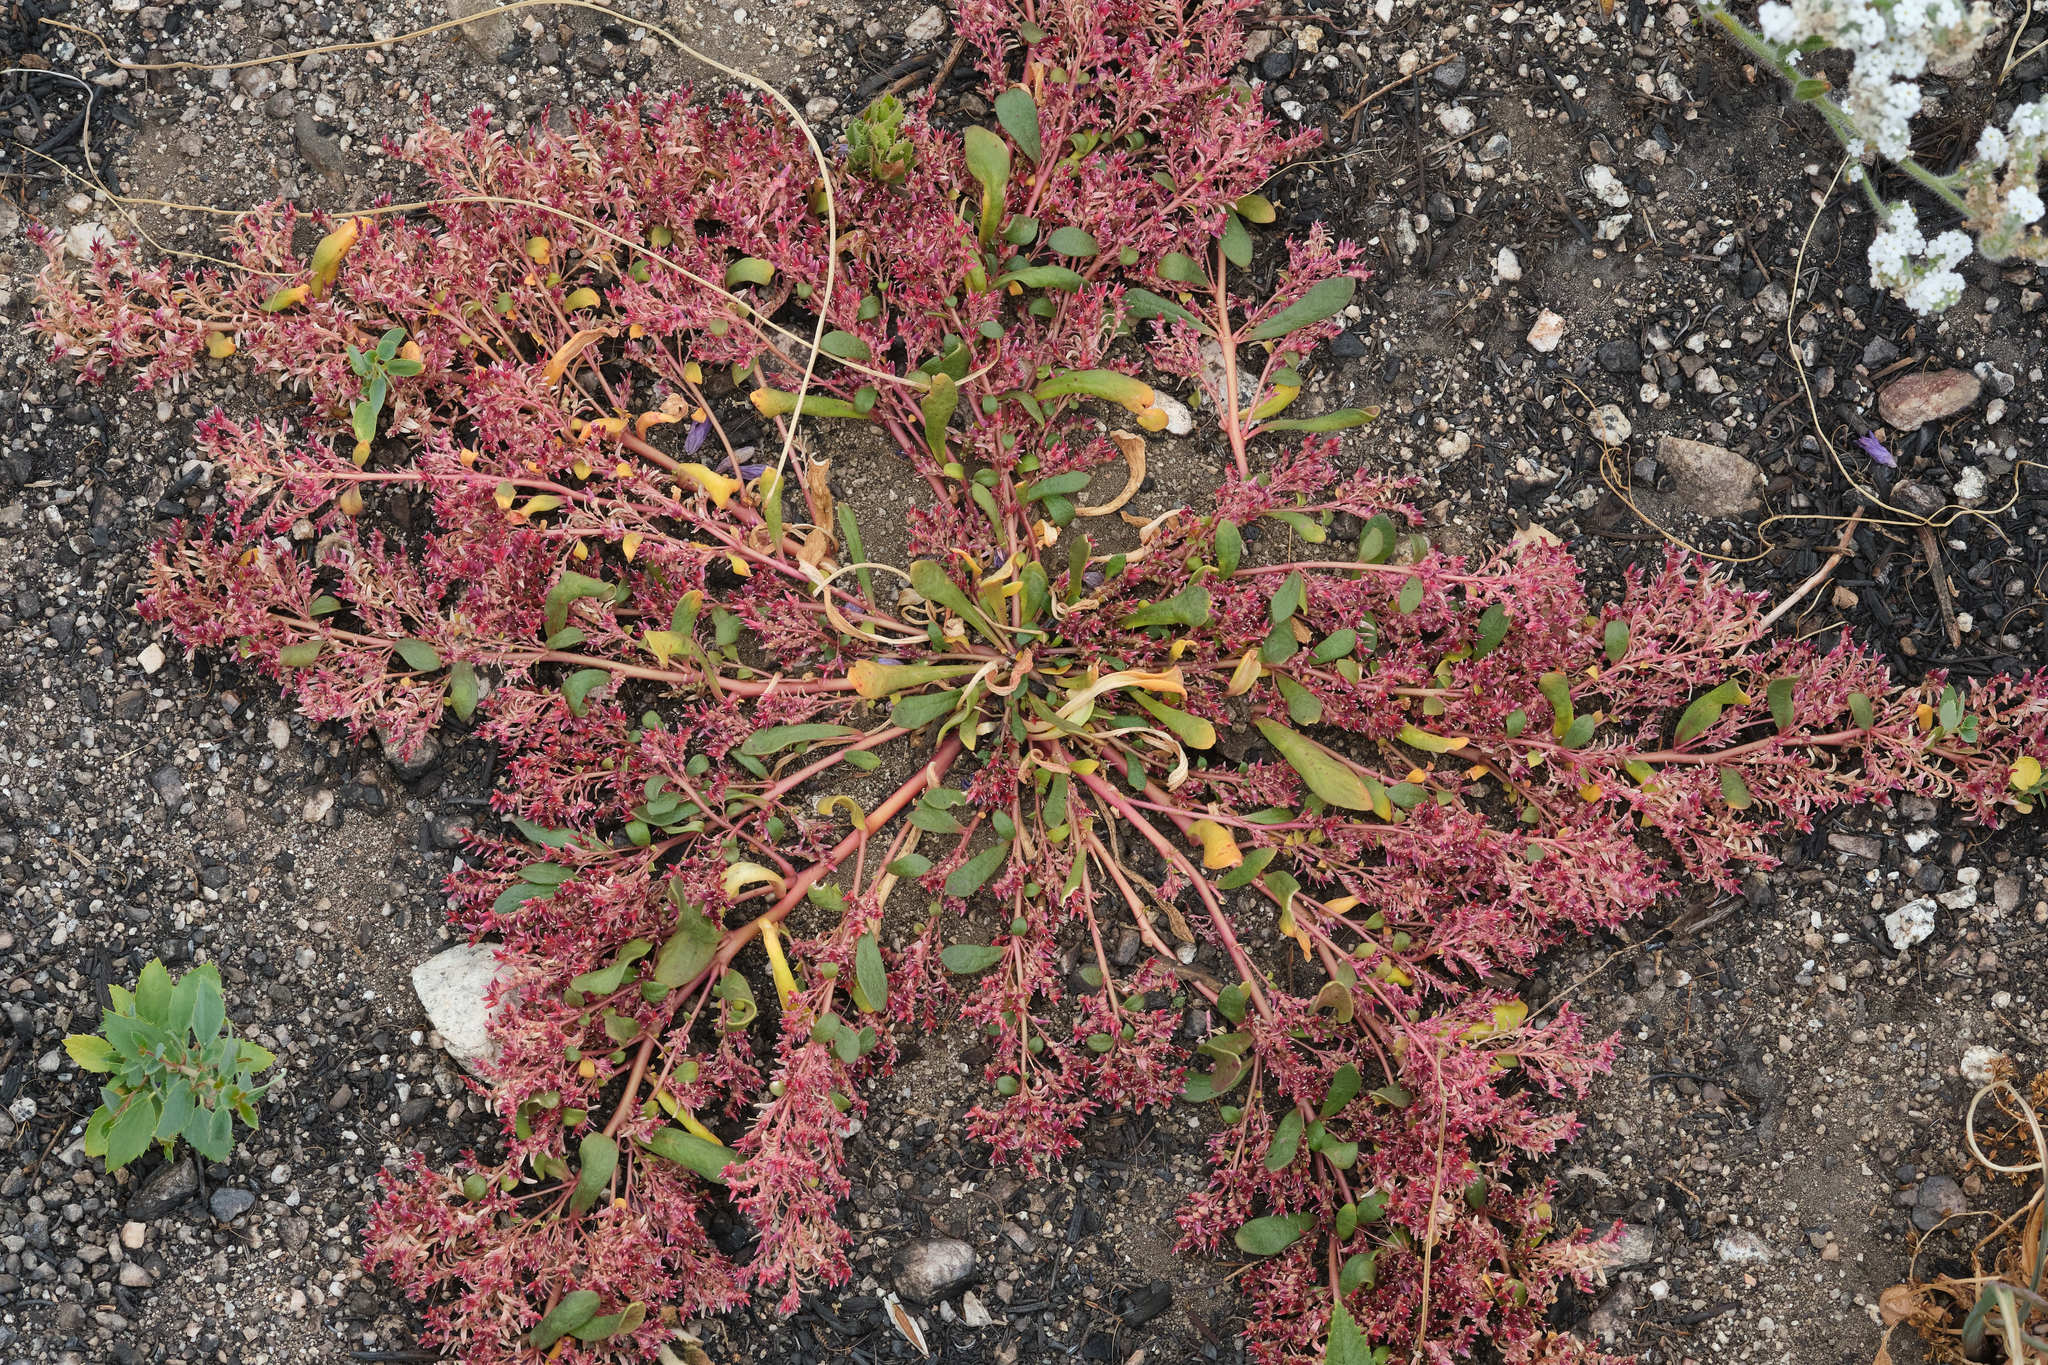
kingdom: Plantae
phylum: Tracheophyta
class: Magnoliopsida
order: Caryophyllales
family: Montiaceae
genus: Calyptridium
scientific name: Calyptridium monandrum
